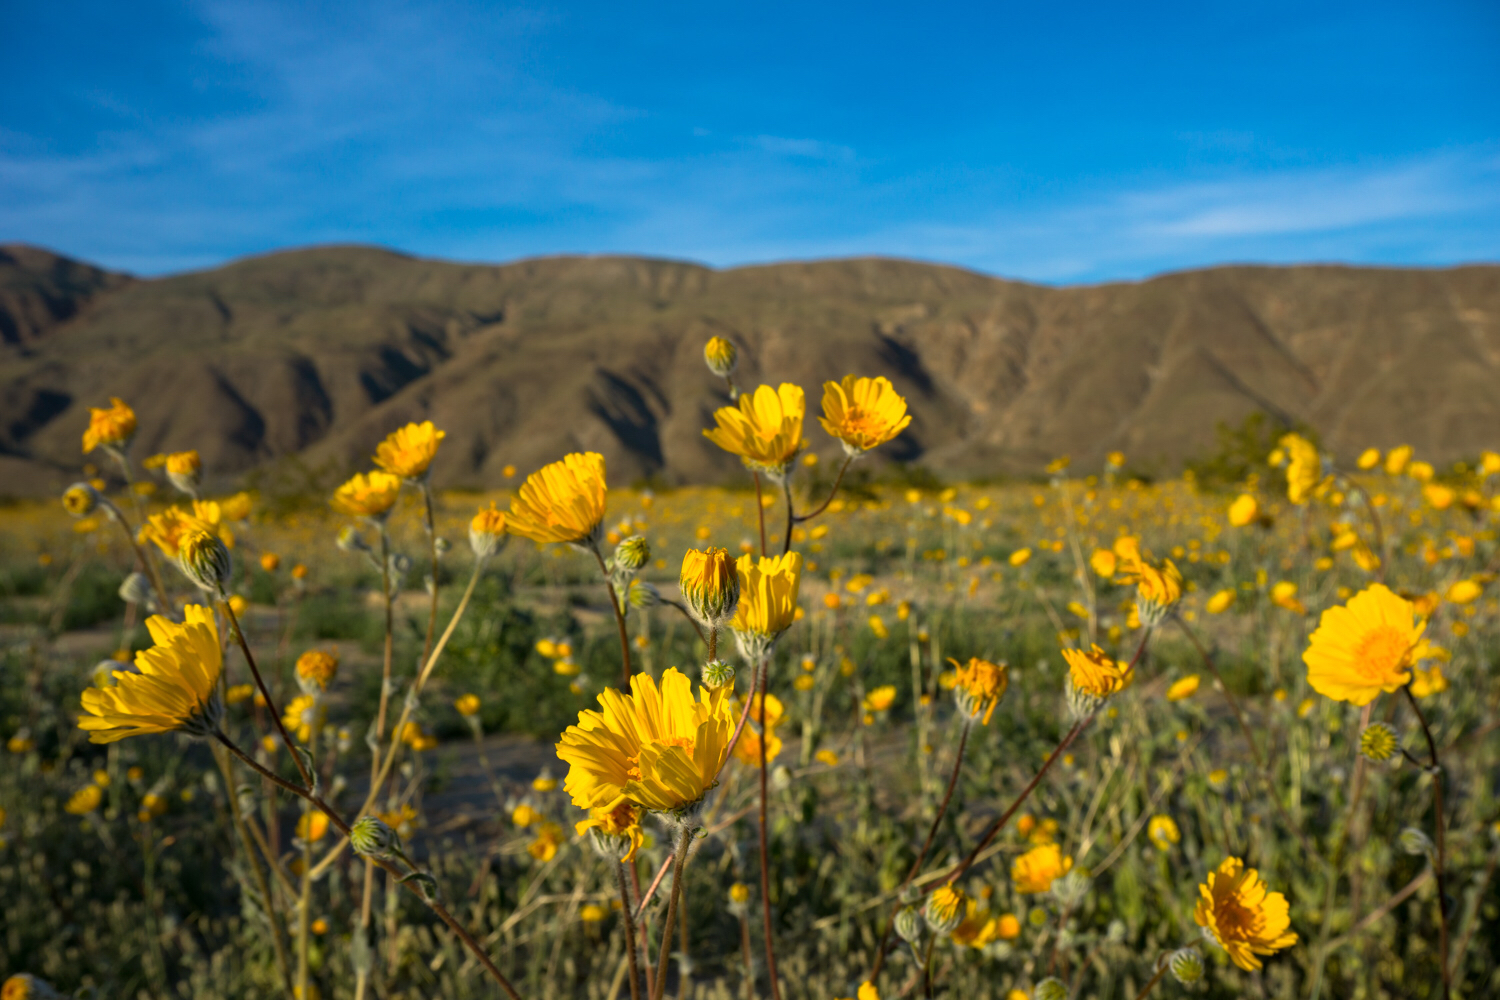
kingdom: Plantae
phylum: Tracheophyta
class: Magnoliopsida
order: Asterales
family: Asteraceae
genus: Geraea
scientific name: Geraea canescens
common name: Desert-gold
